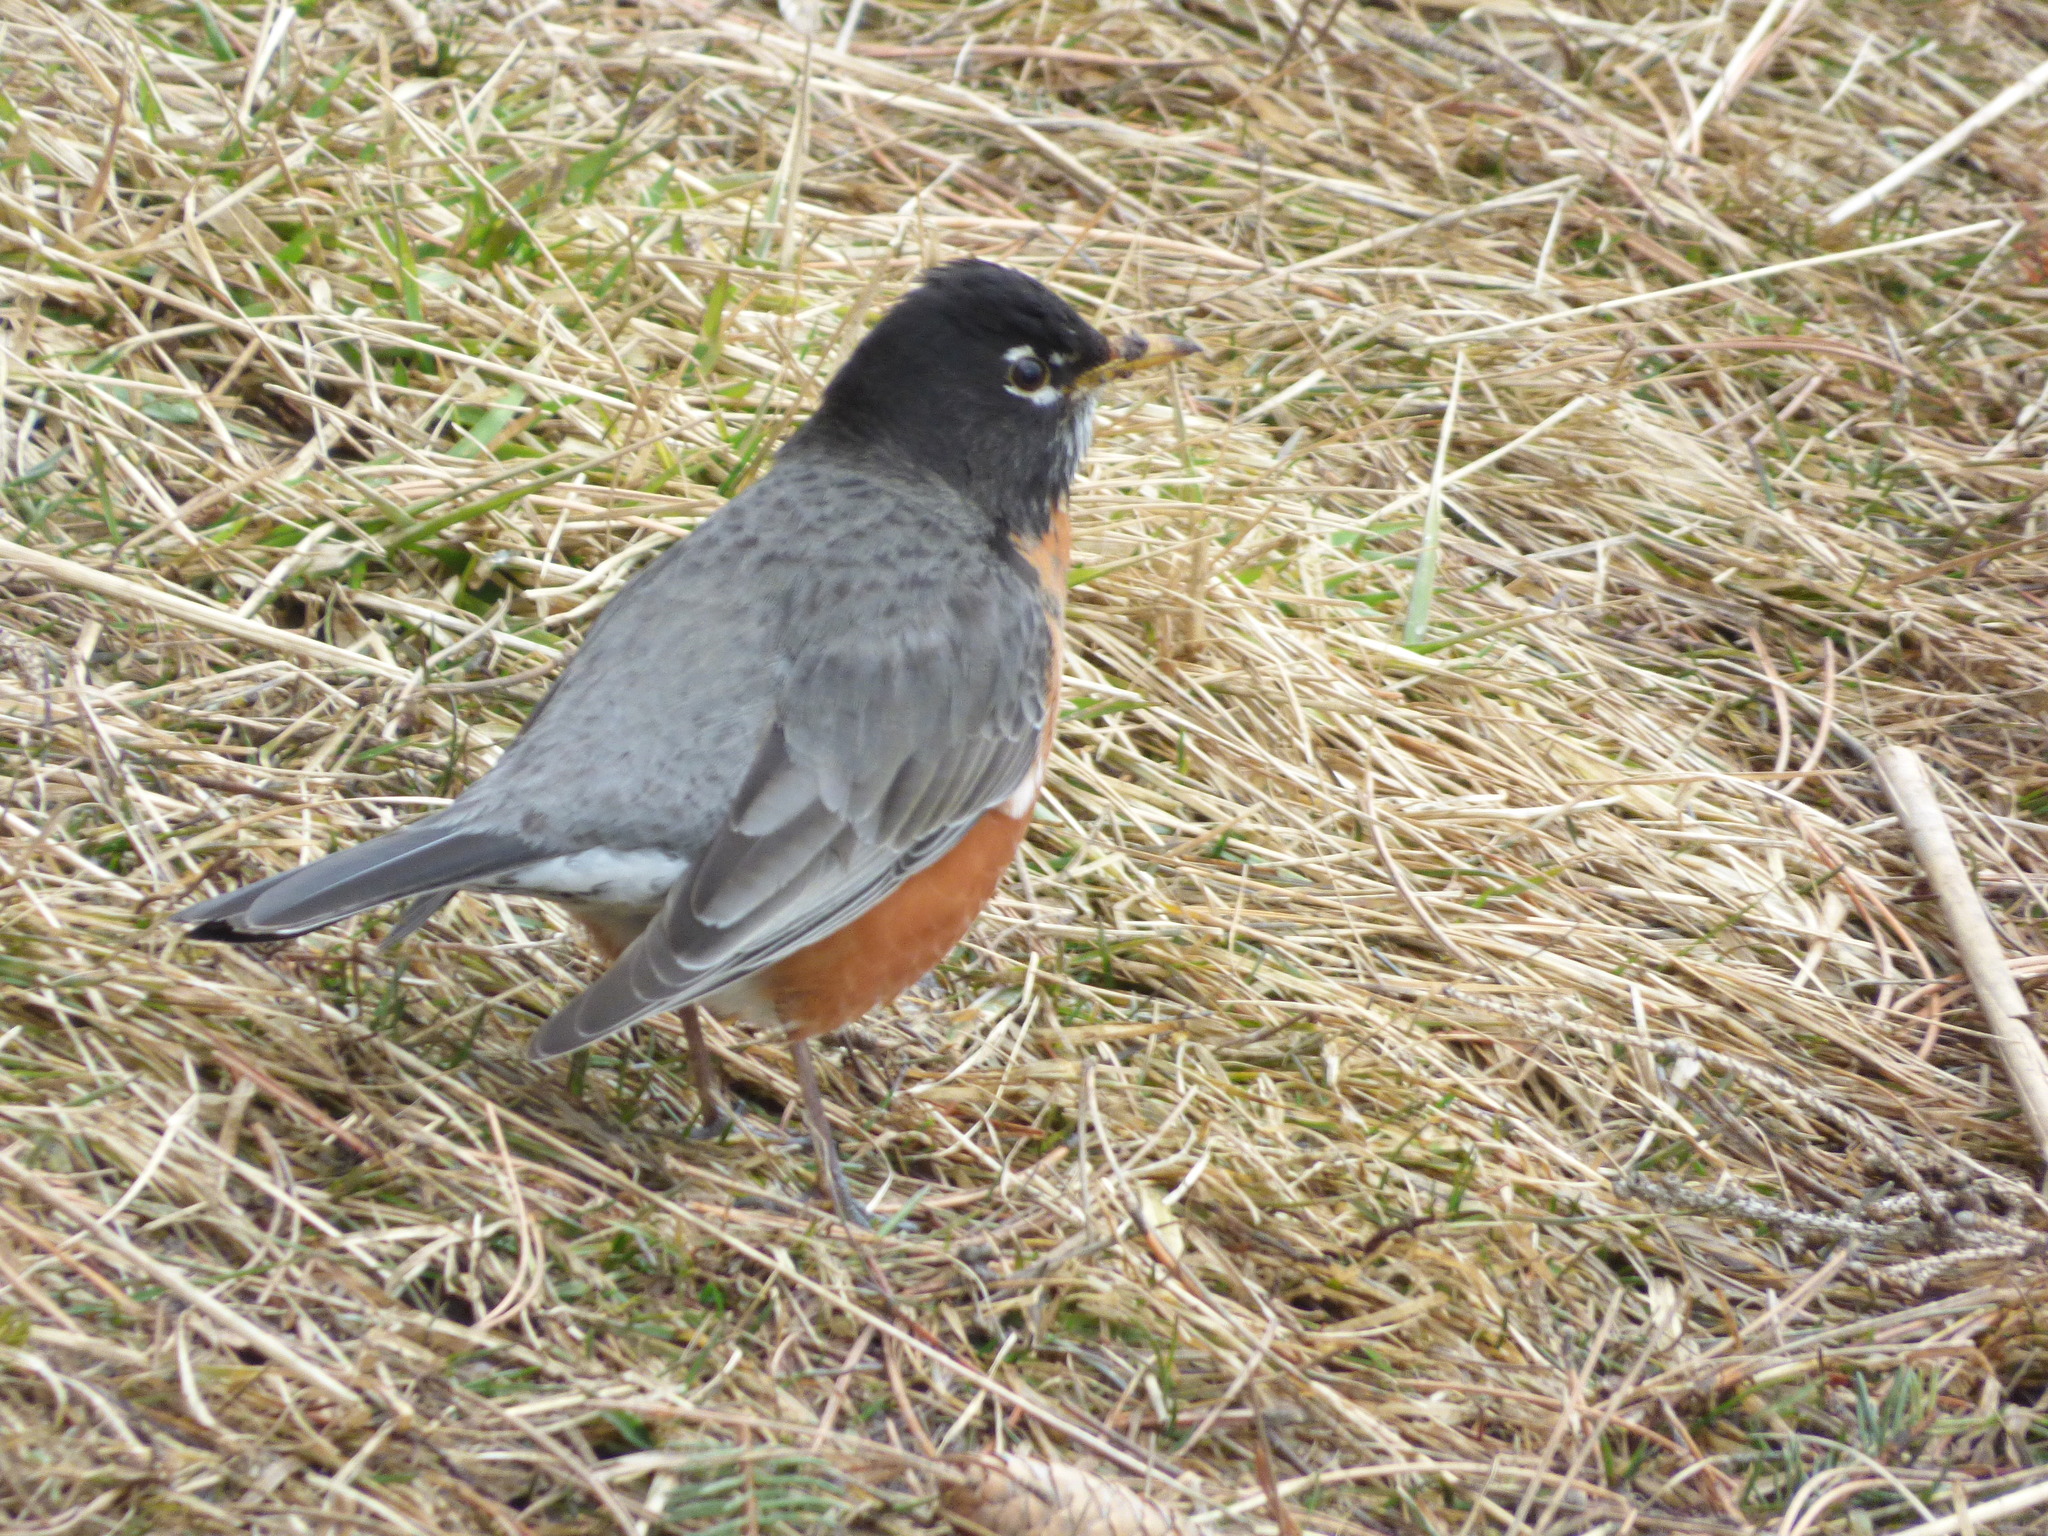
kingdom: Animalia
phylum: Chordata
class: Aves
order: Passeriformes
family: Turdidae
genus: Turdus
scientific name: Turdus migratorius
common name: American robin
